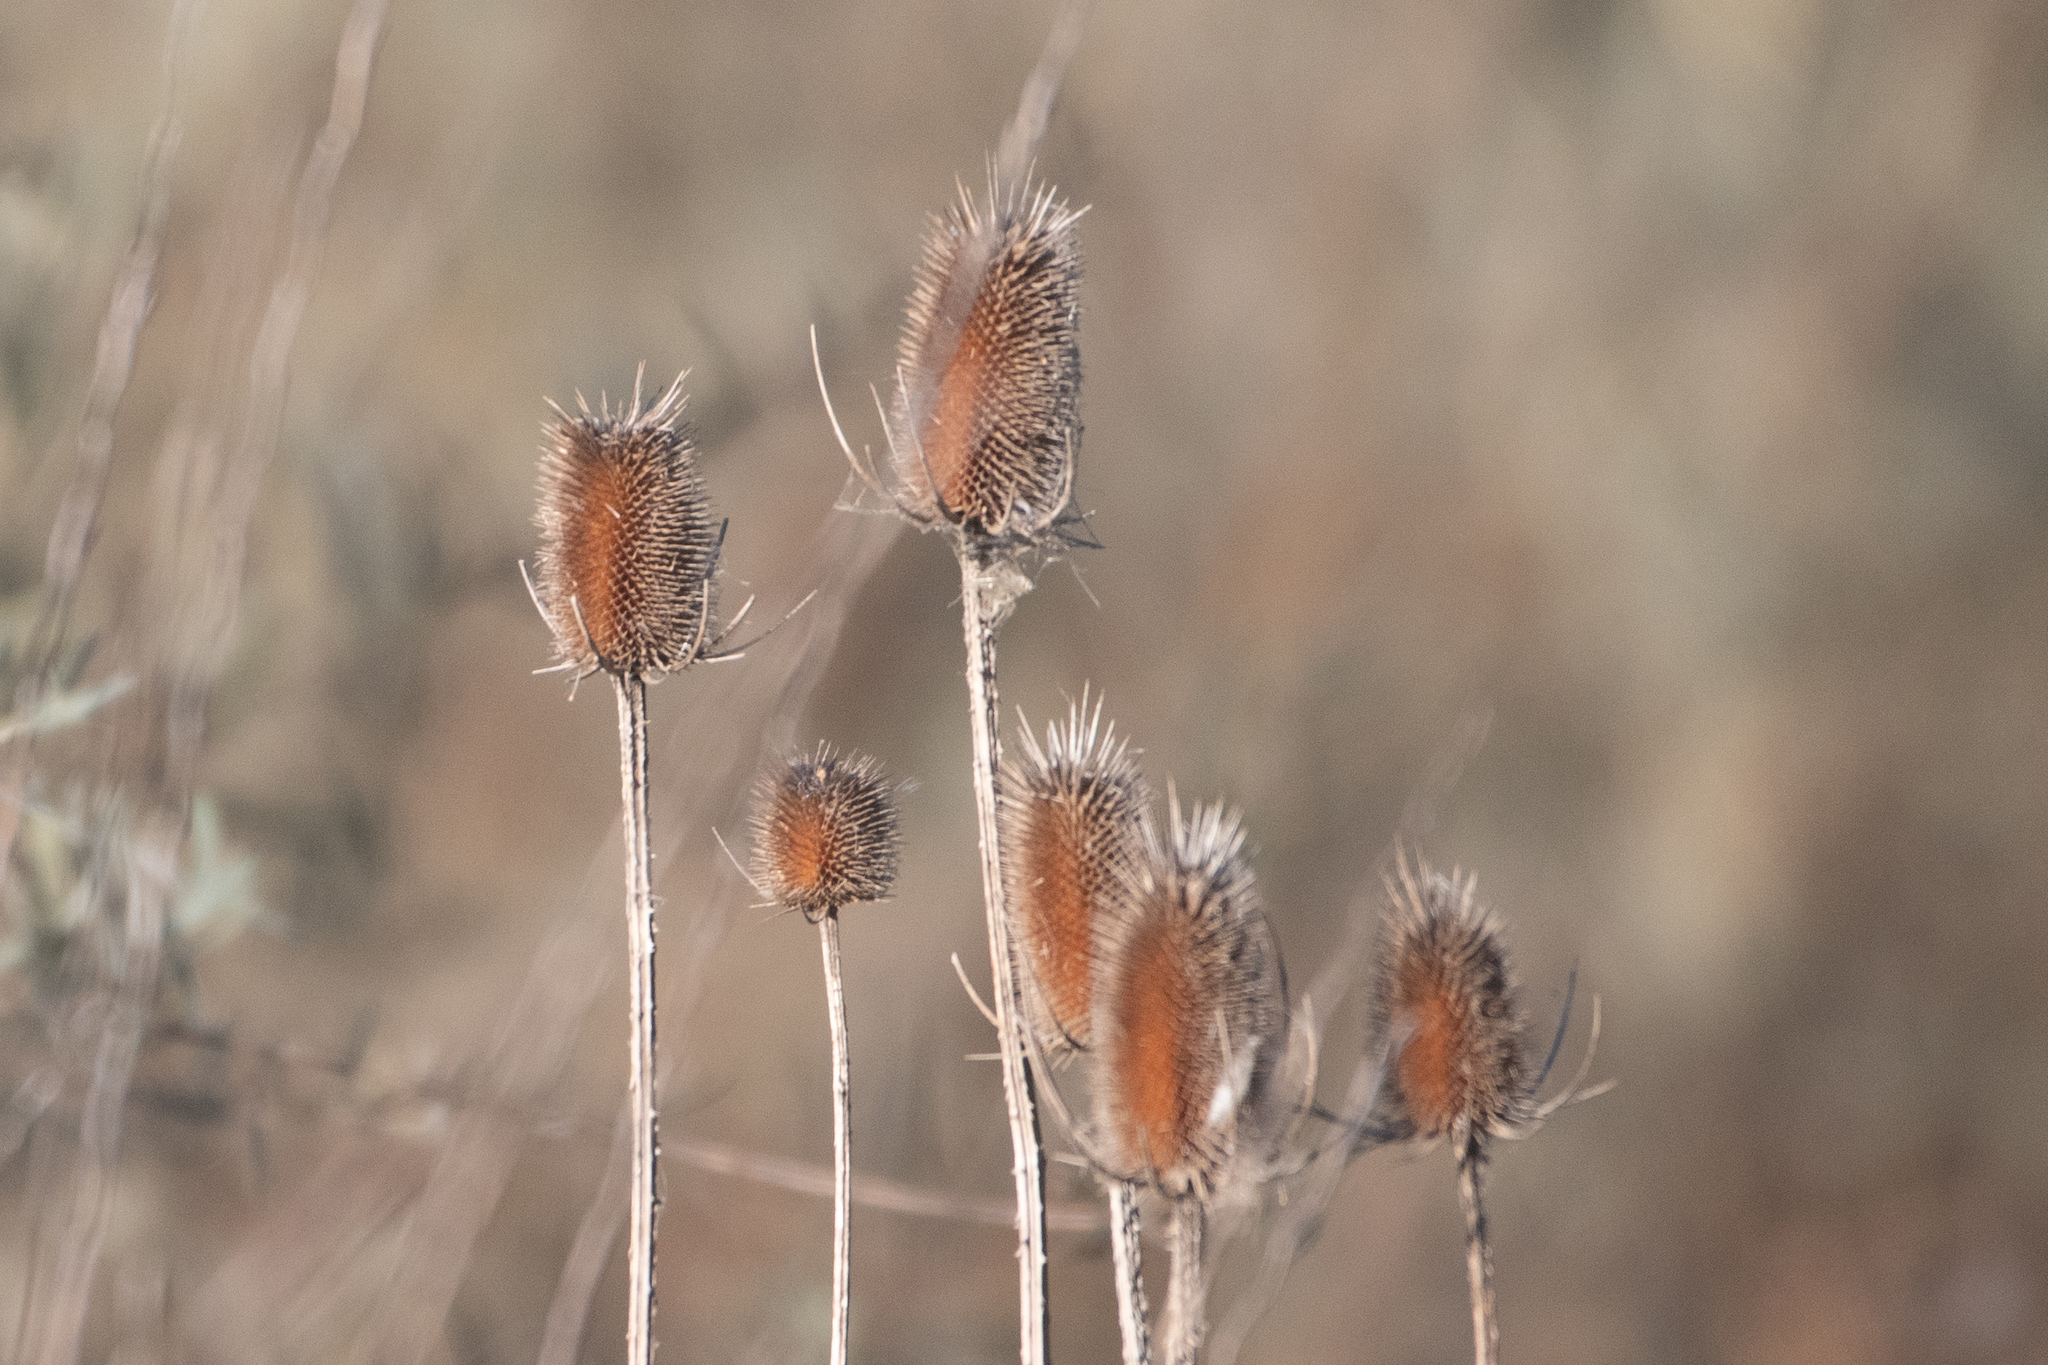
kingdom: Plantae
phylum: Tracheophyta
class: Magnoliopsida
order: Dipsacales
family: Caprifoliaceae
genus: Dipsacus
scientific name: Dipsacus fullonum
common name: Teasel
